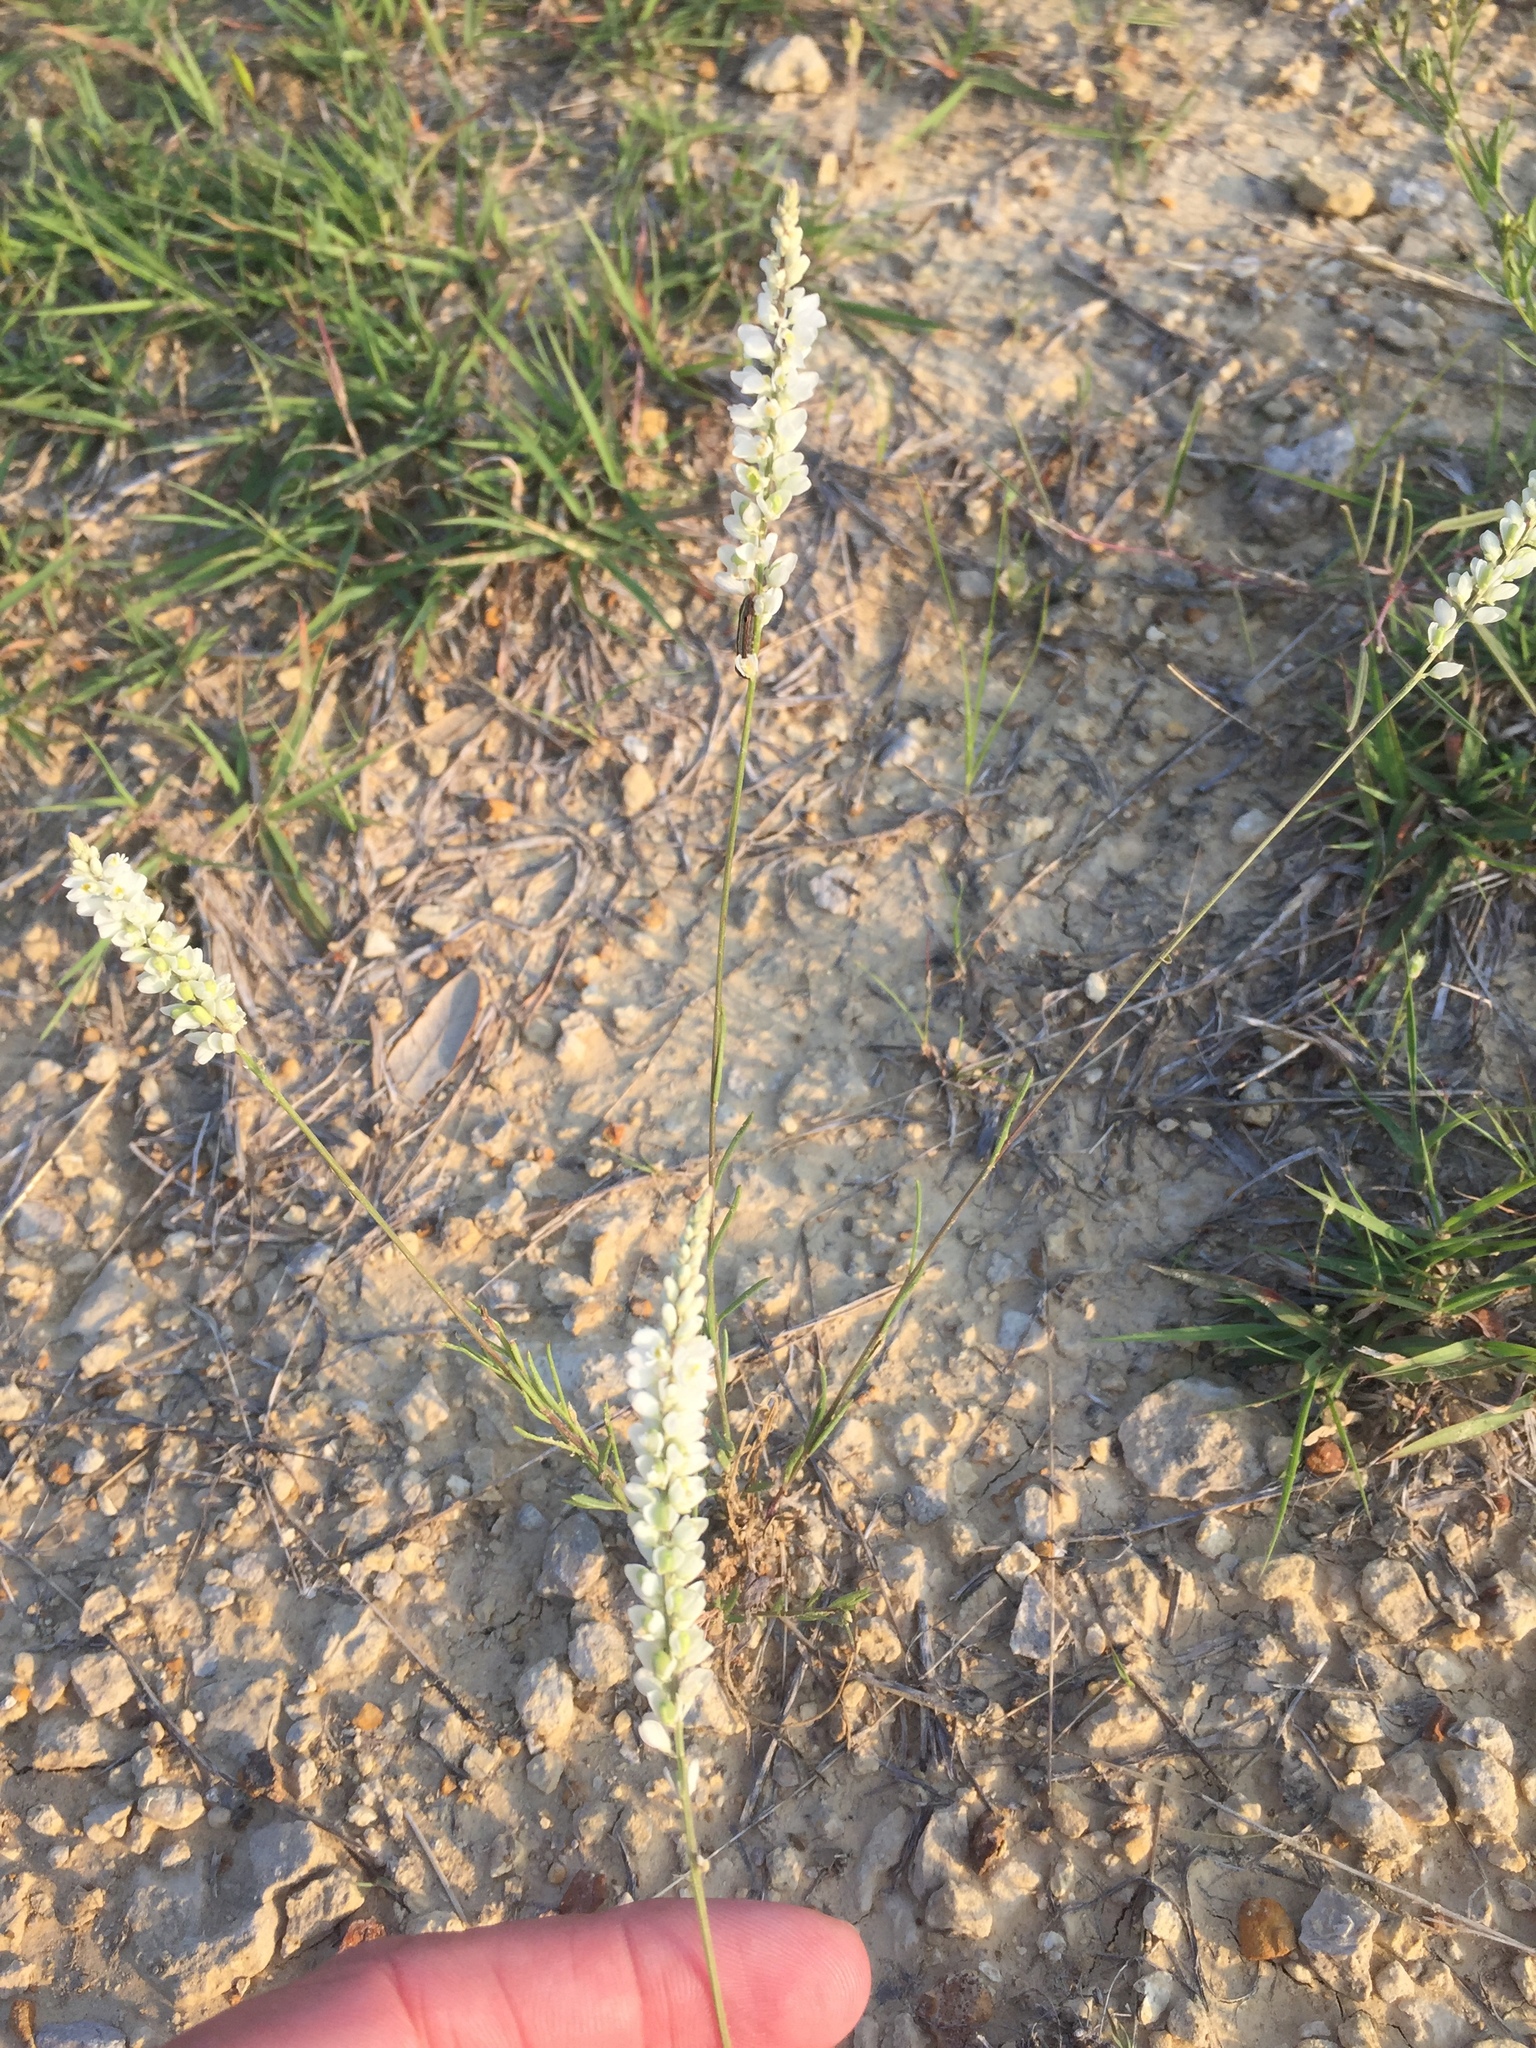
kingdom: Plantae
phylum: Tracheophyta
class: Magnoliopsida
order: Fabales
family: Polygalaceae
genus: Polygala
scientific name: Polygala alba
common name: White milkwort
